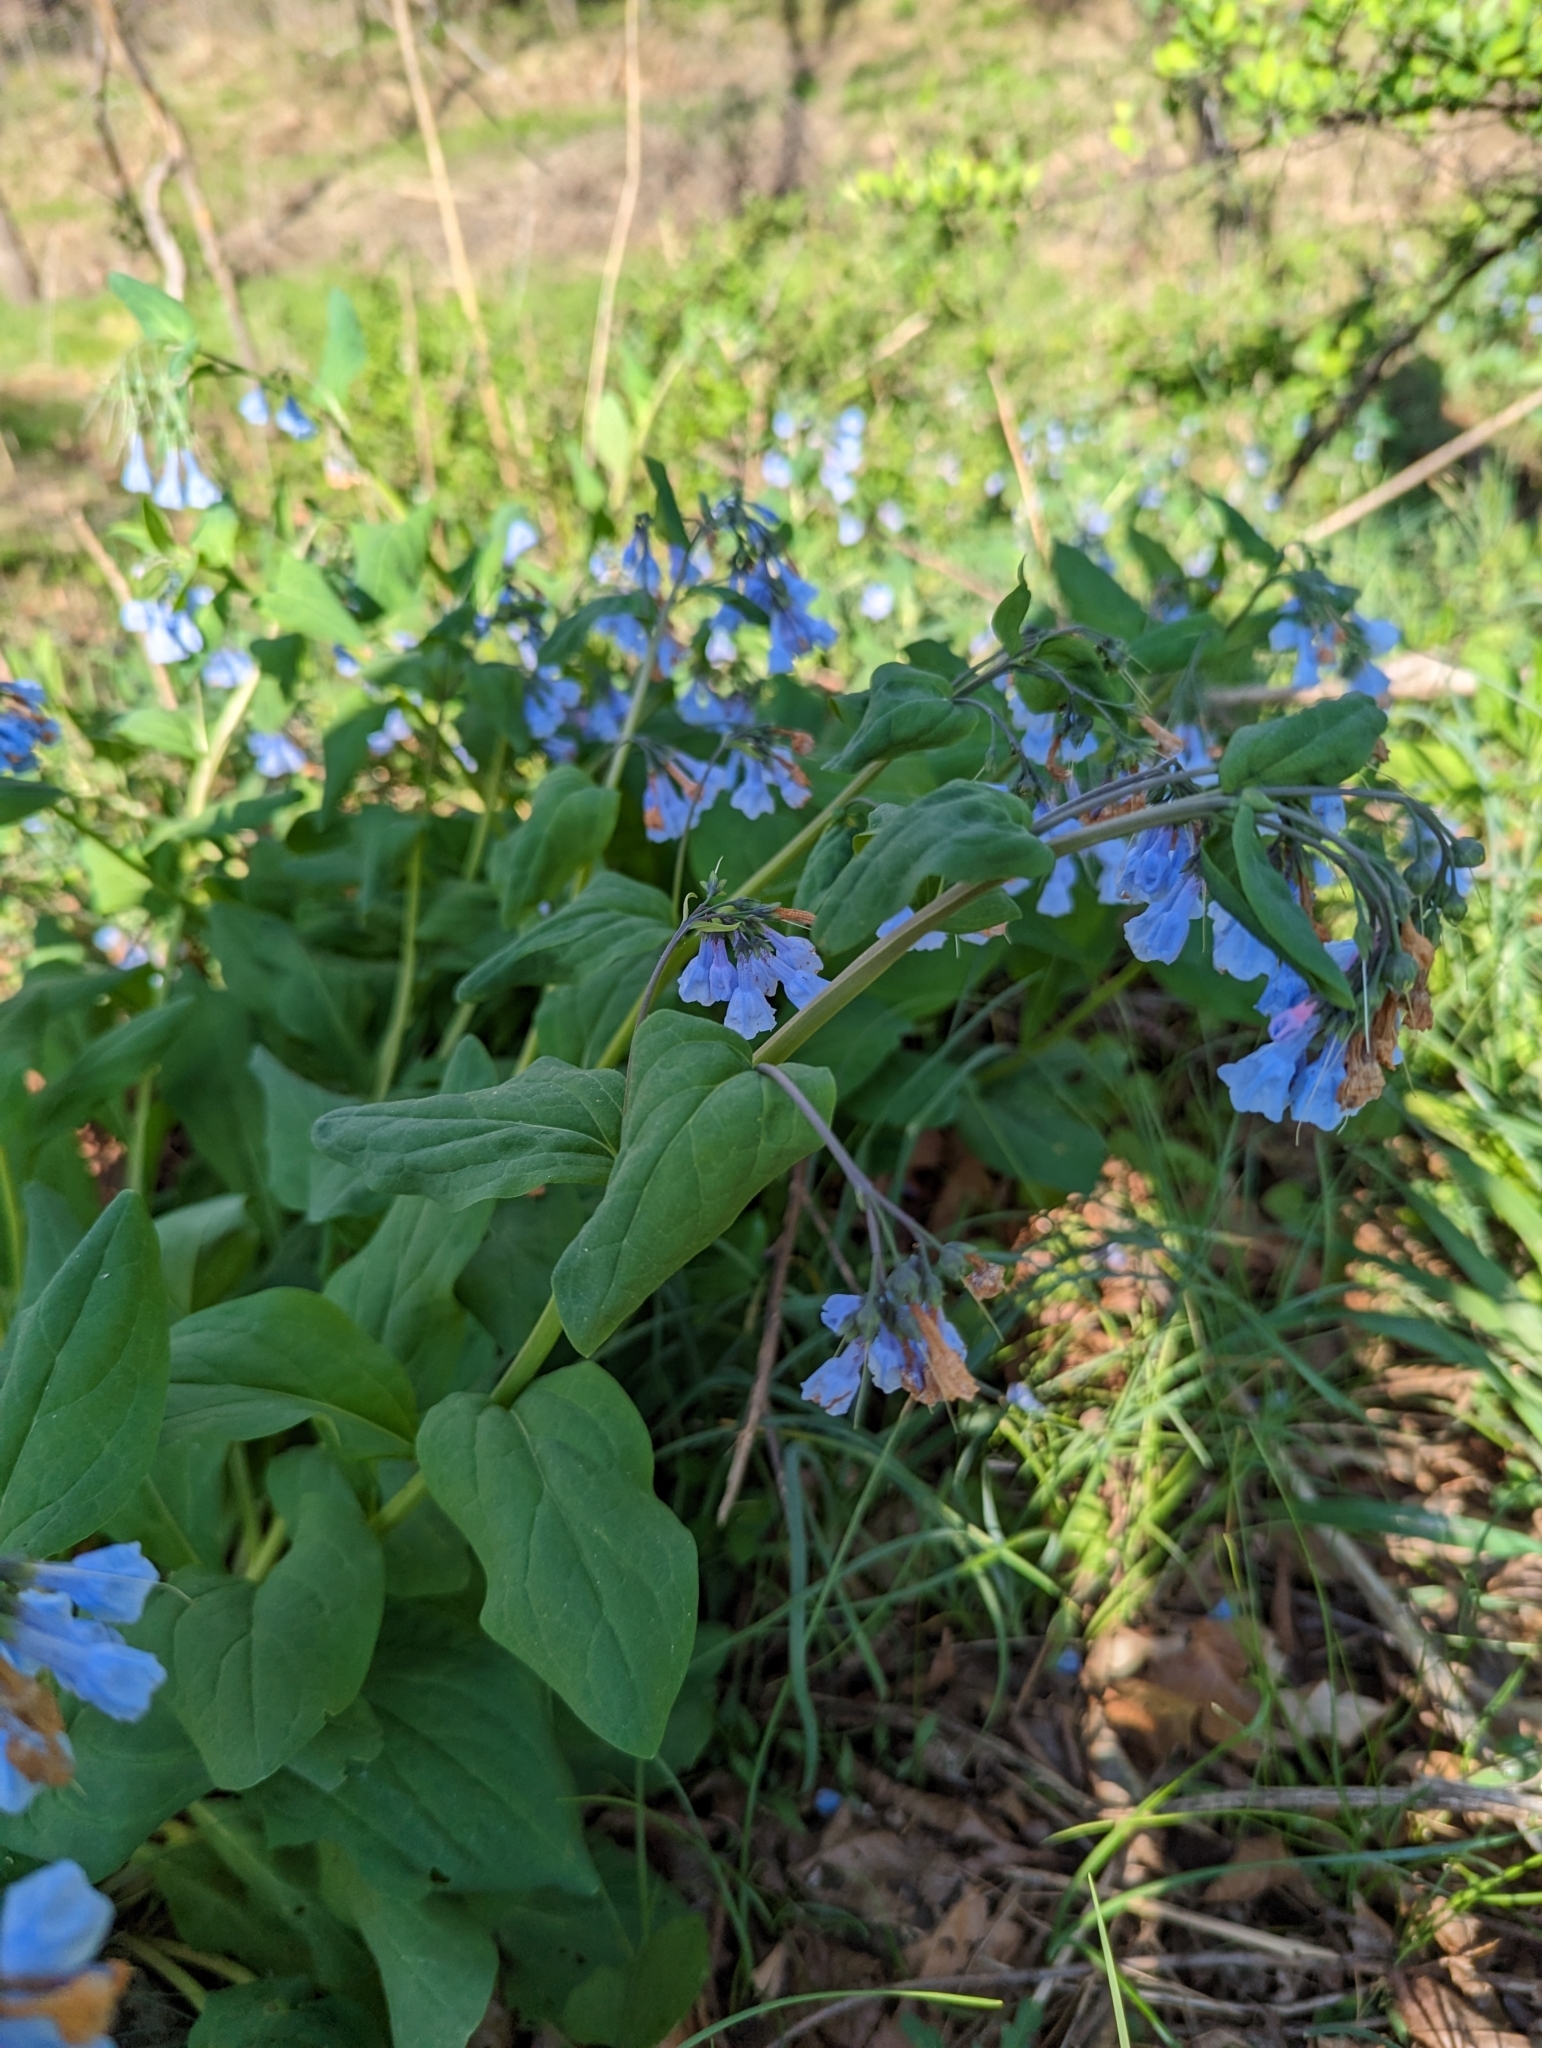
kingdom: Plantae
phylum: Tracheophyta
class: Magnoliopsida
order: Boraginales
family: Boraginaceae
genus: Mertensia
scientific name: Mertensia virginica
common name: Virginia bluebells
